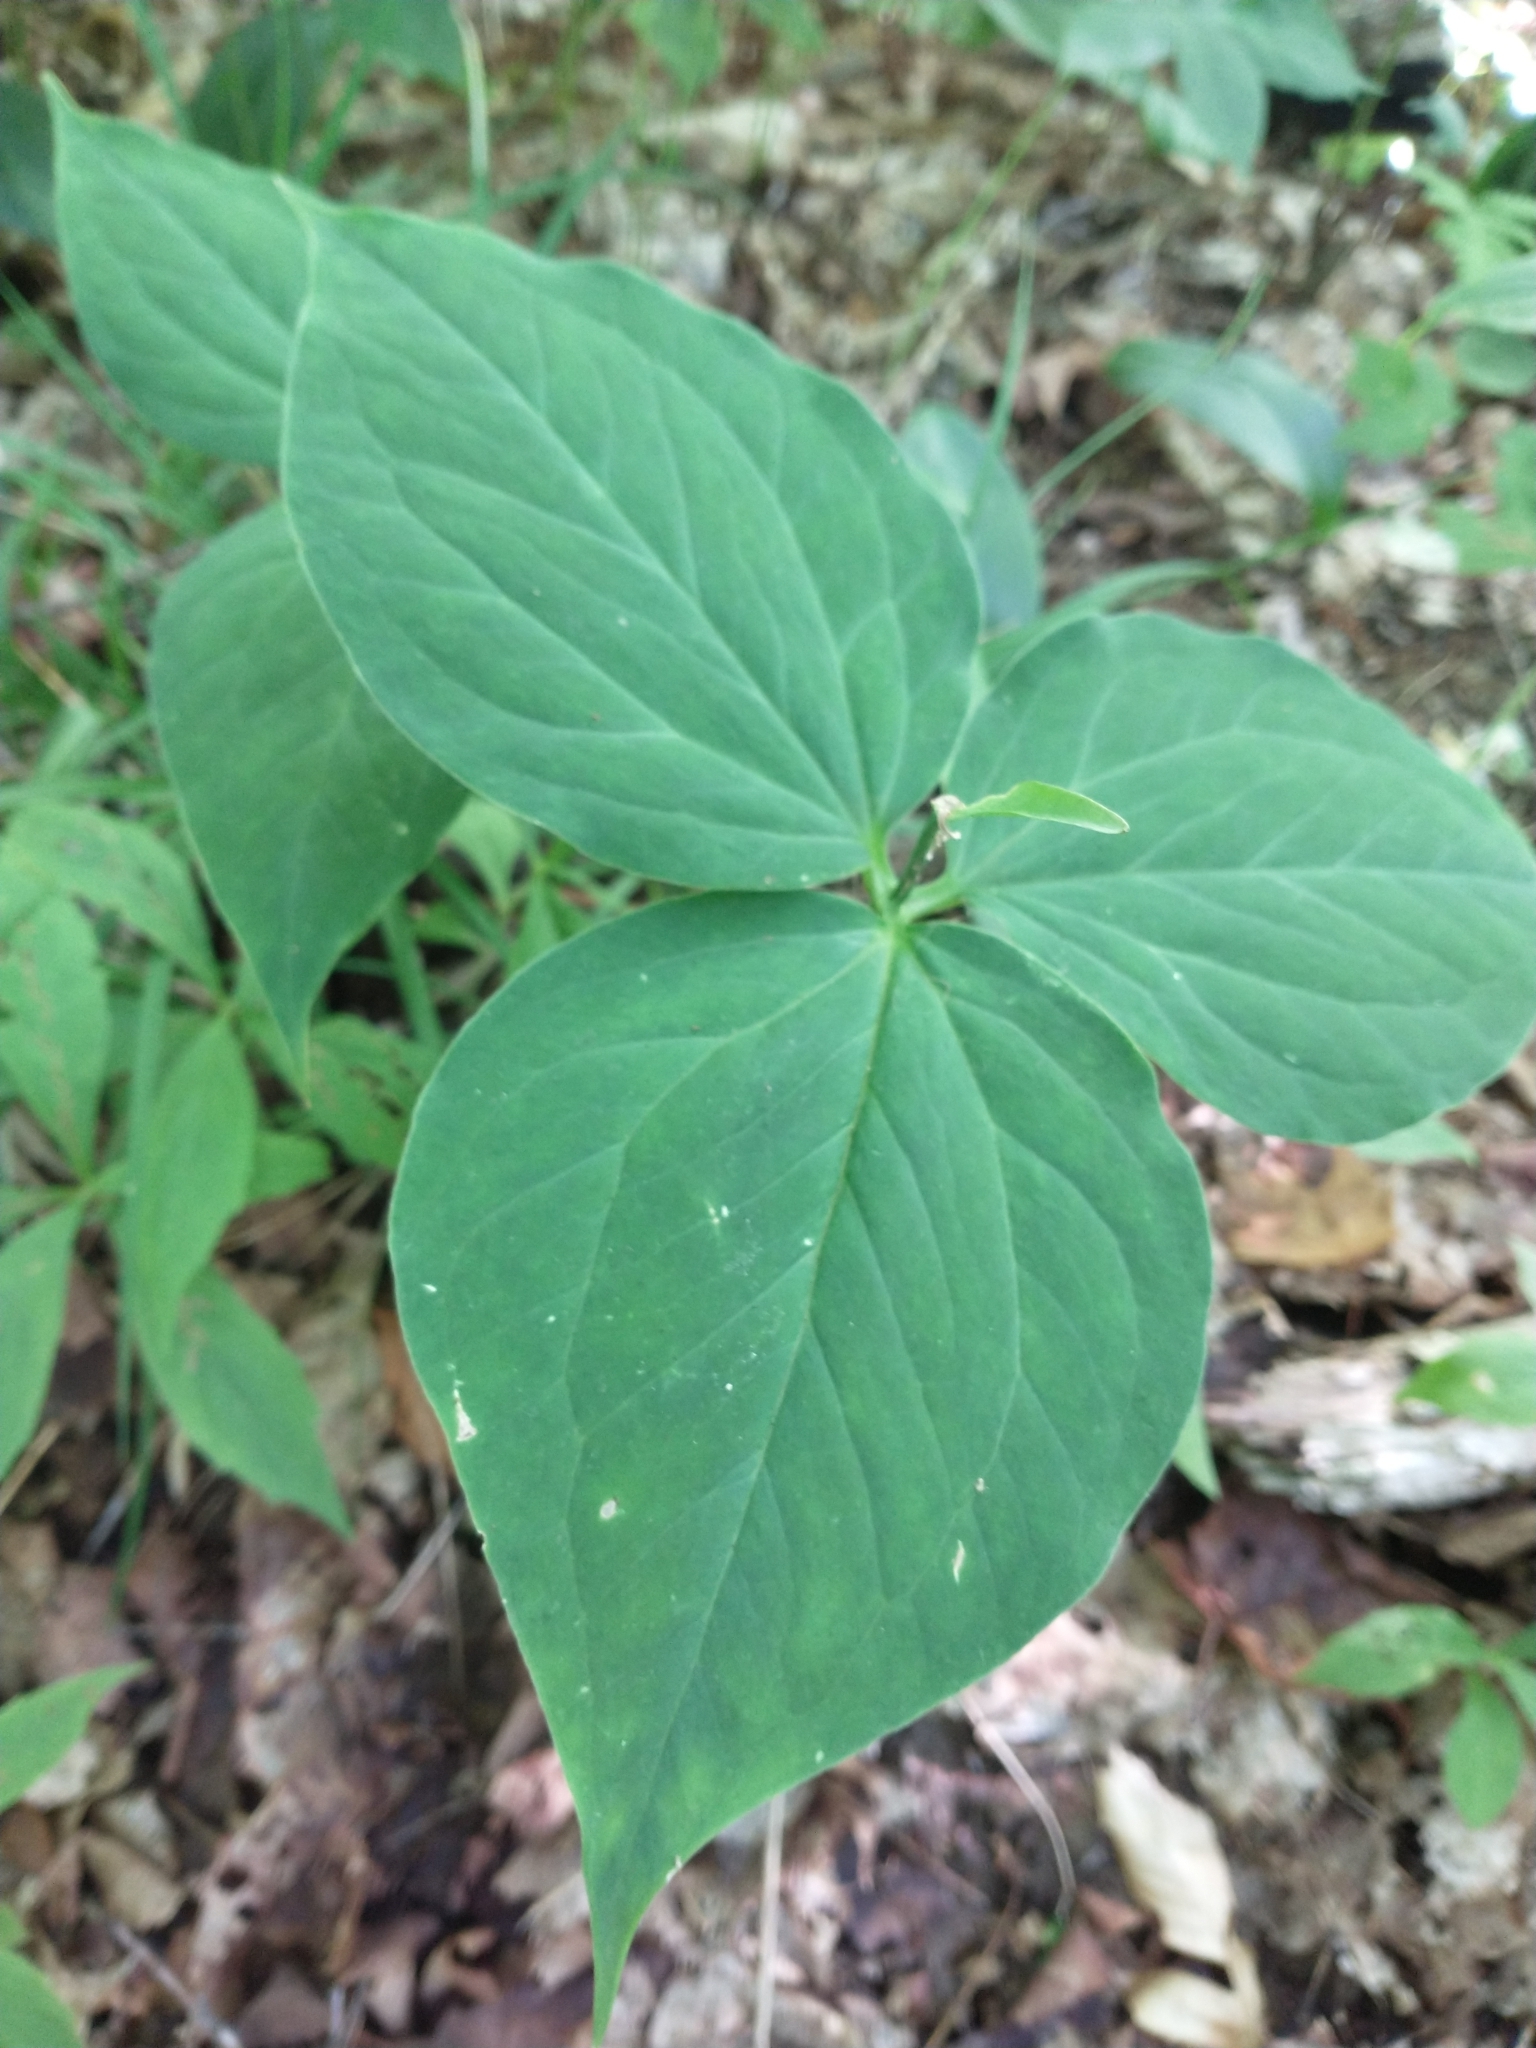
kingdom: Plantae
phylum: Tracheophyta
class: Liliopsida
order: Liliales
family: Melanthiaceae
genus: Trillium
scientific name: Trillium undulatum
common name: Paint trillium
